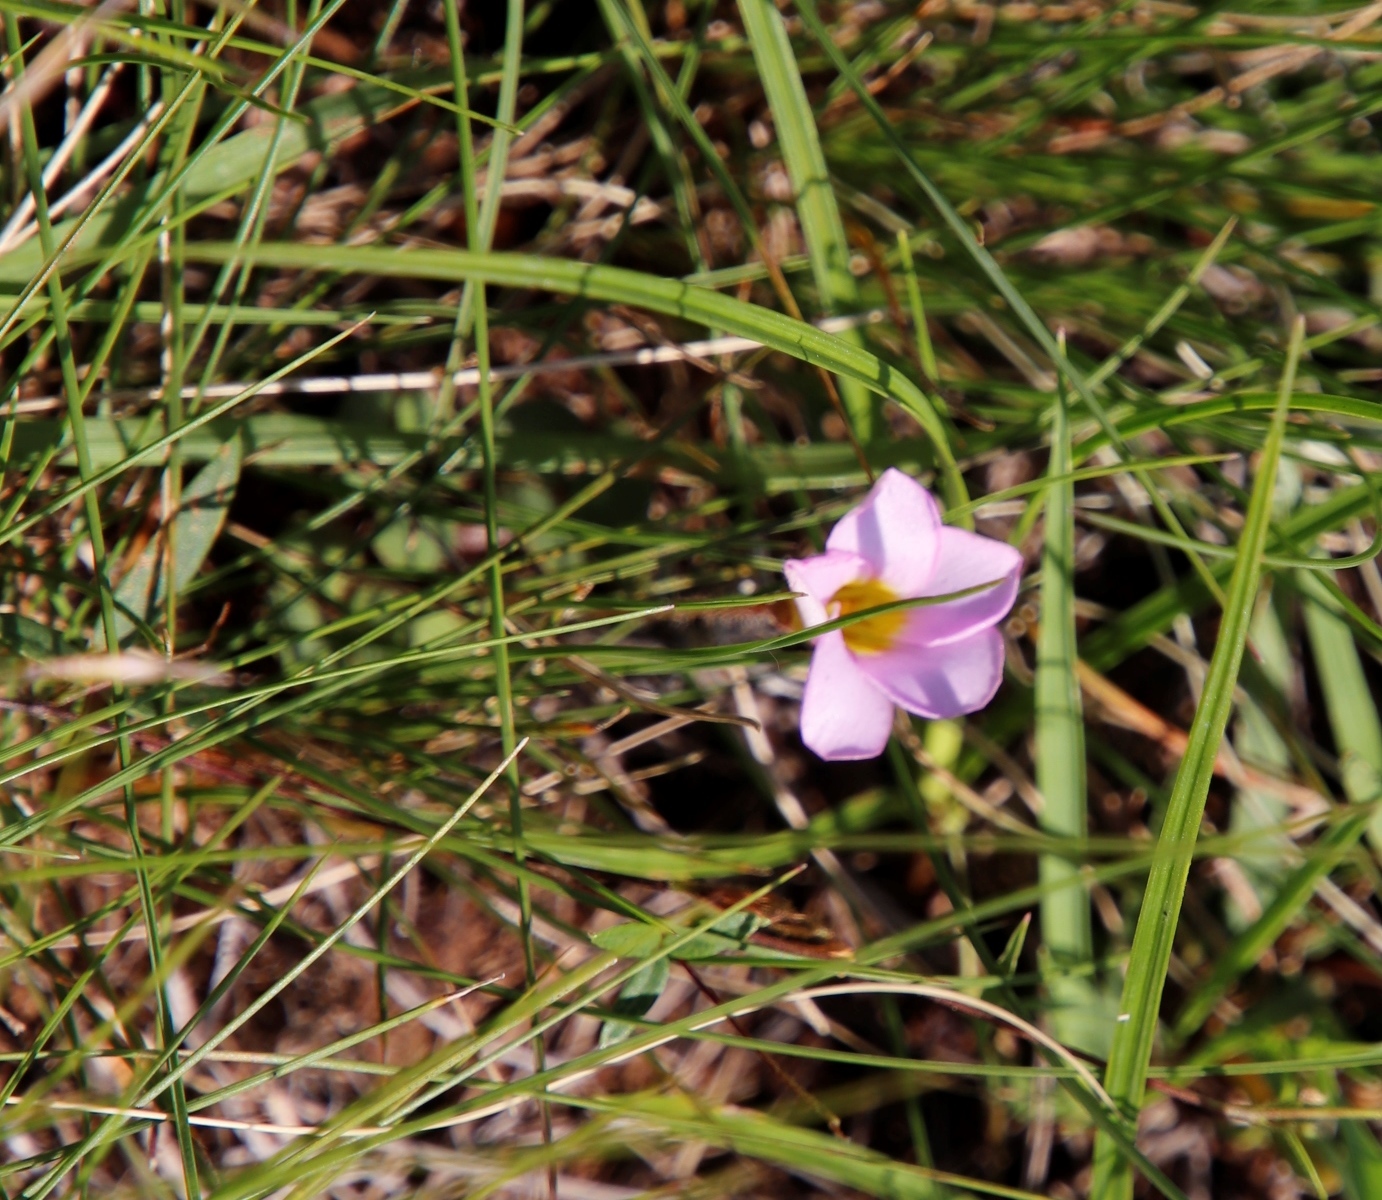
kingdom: Plantae
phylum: Tracheophyta
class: Magnoliopsida
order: Oxalidales
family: Oxalidaceae
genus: Oxalis
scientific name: Oxalis obliquifolia
